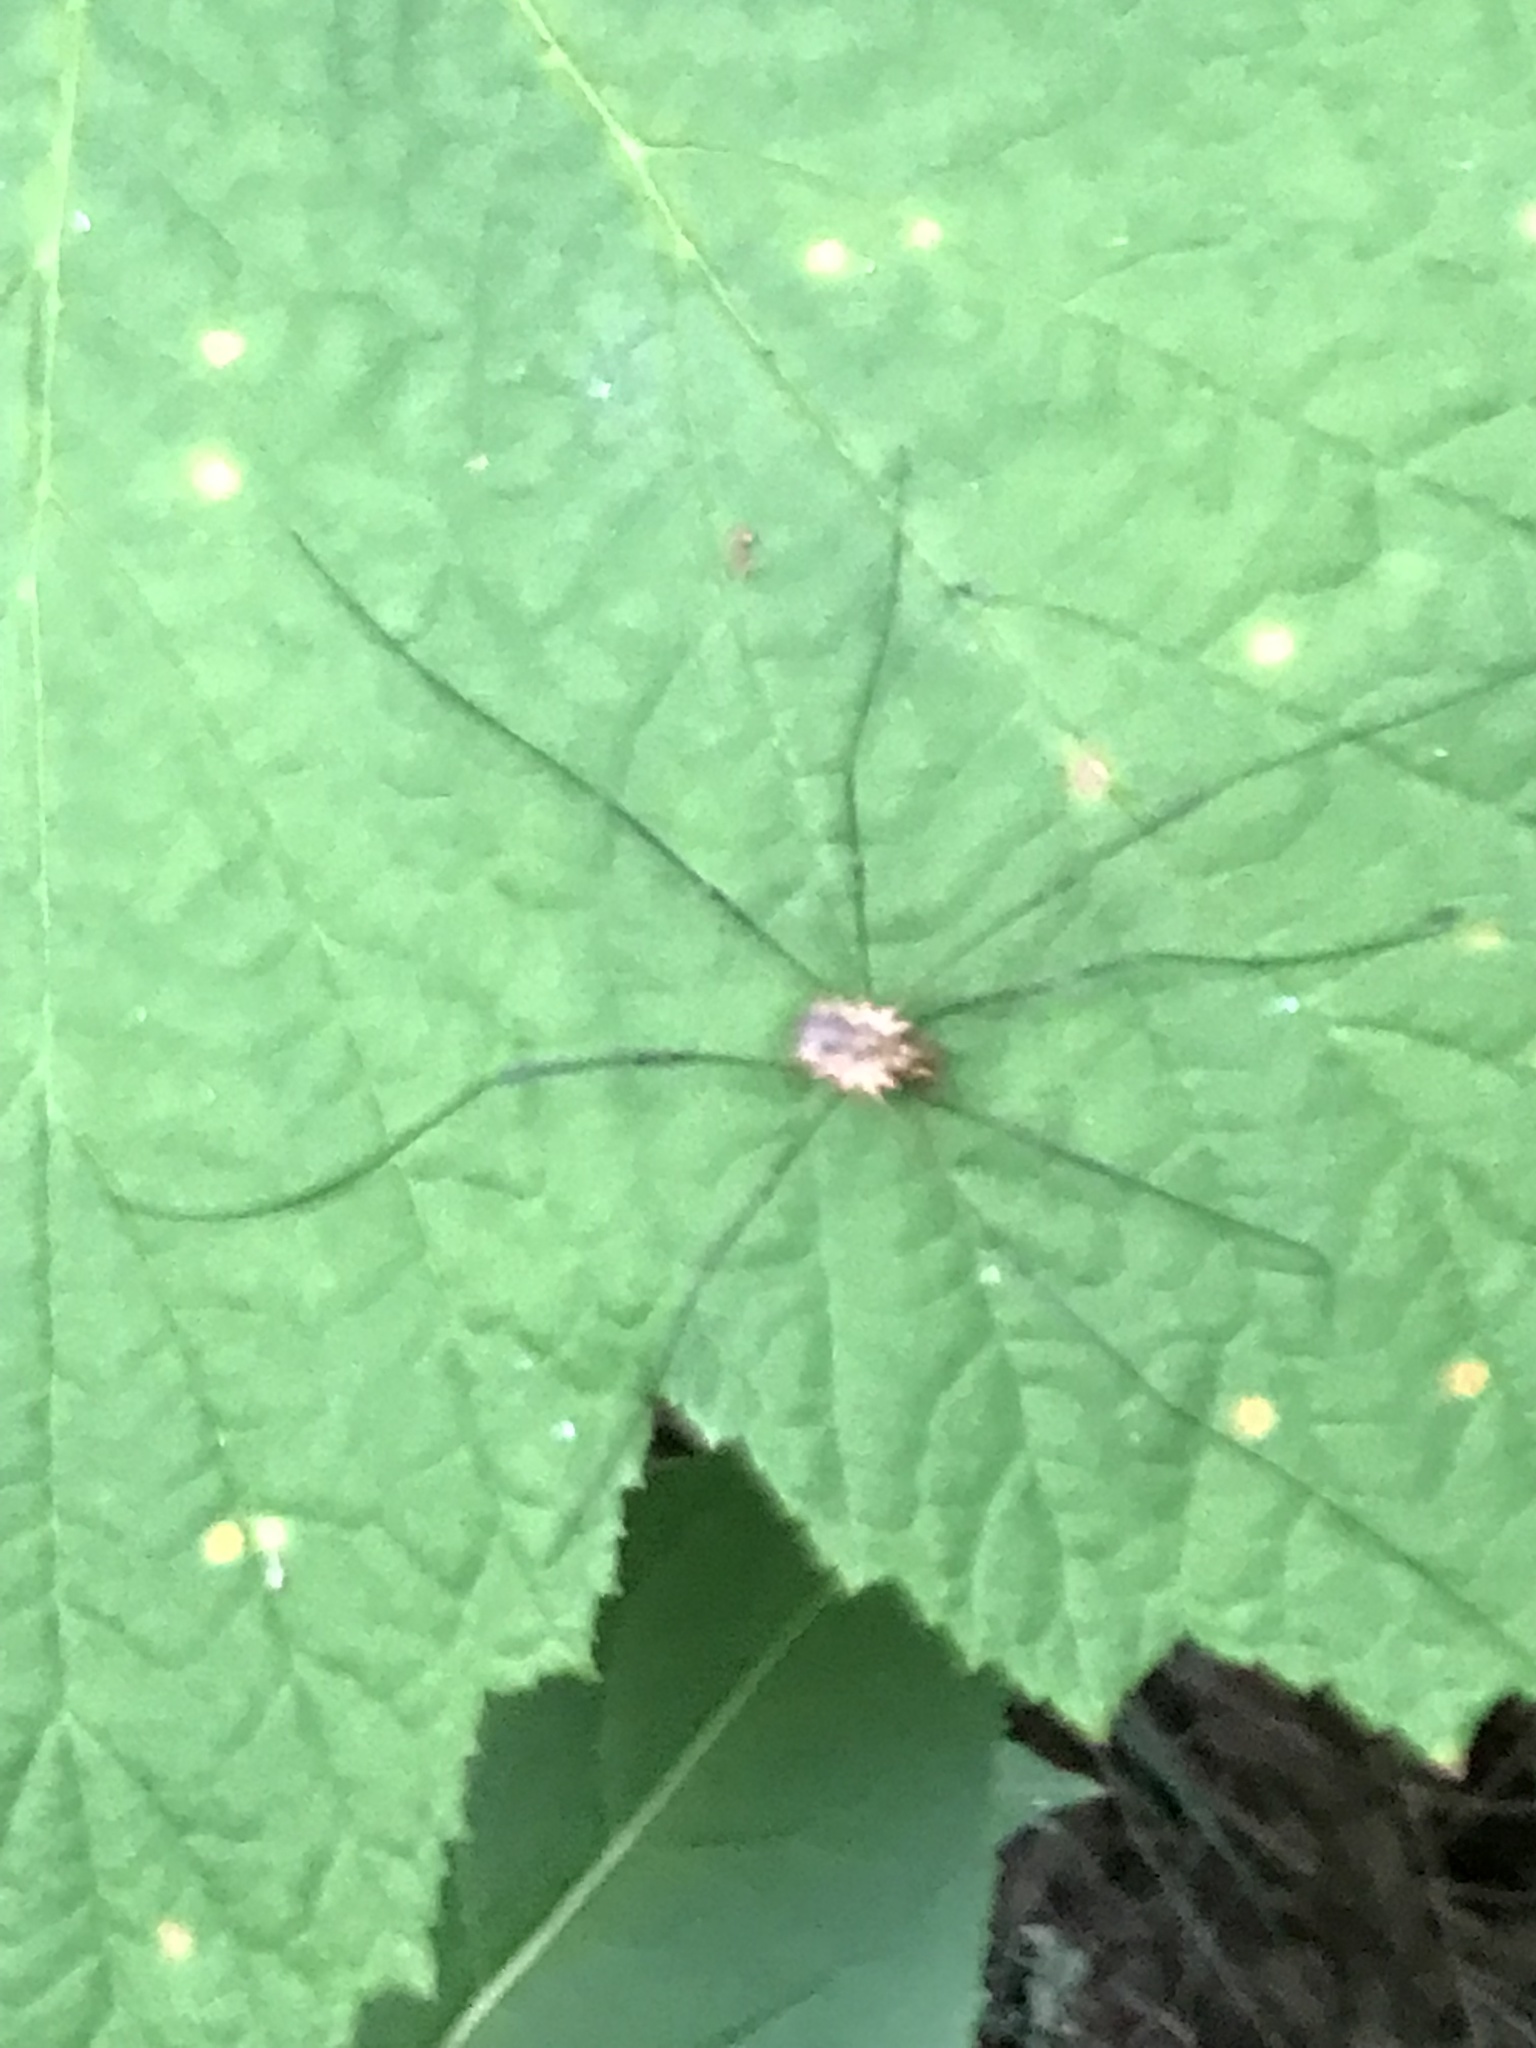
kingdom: Animalia
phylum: Arthropoda
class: Arachnida
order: Opiliones
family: Phalangiidae
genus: Phalangium
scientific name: Phalangium opilio
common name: Daddy longleg
